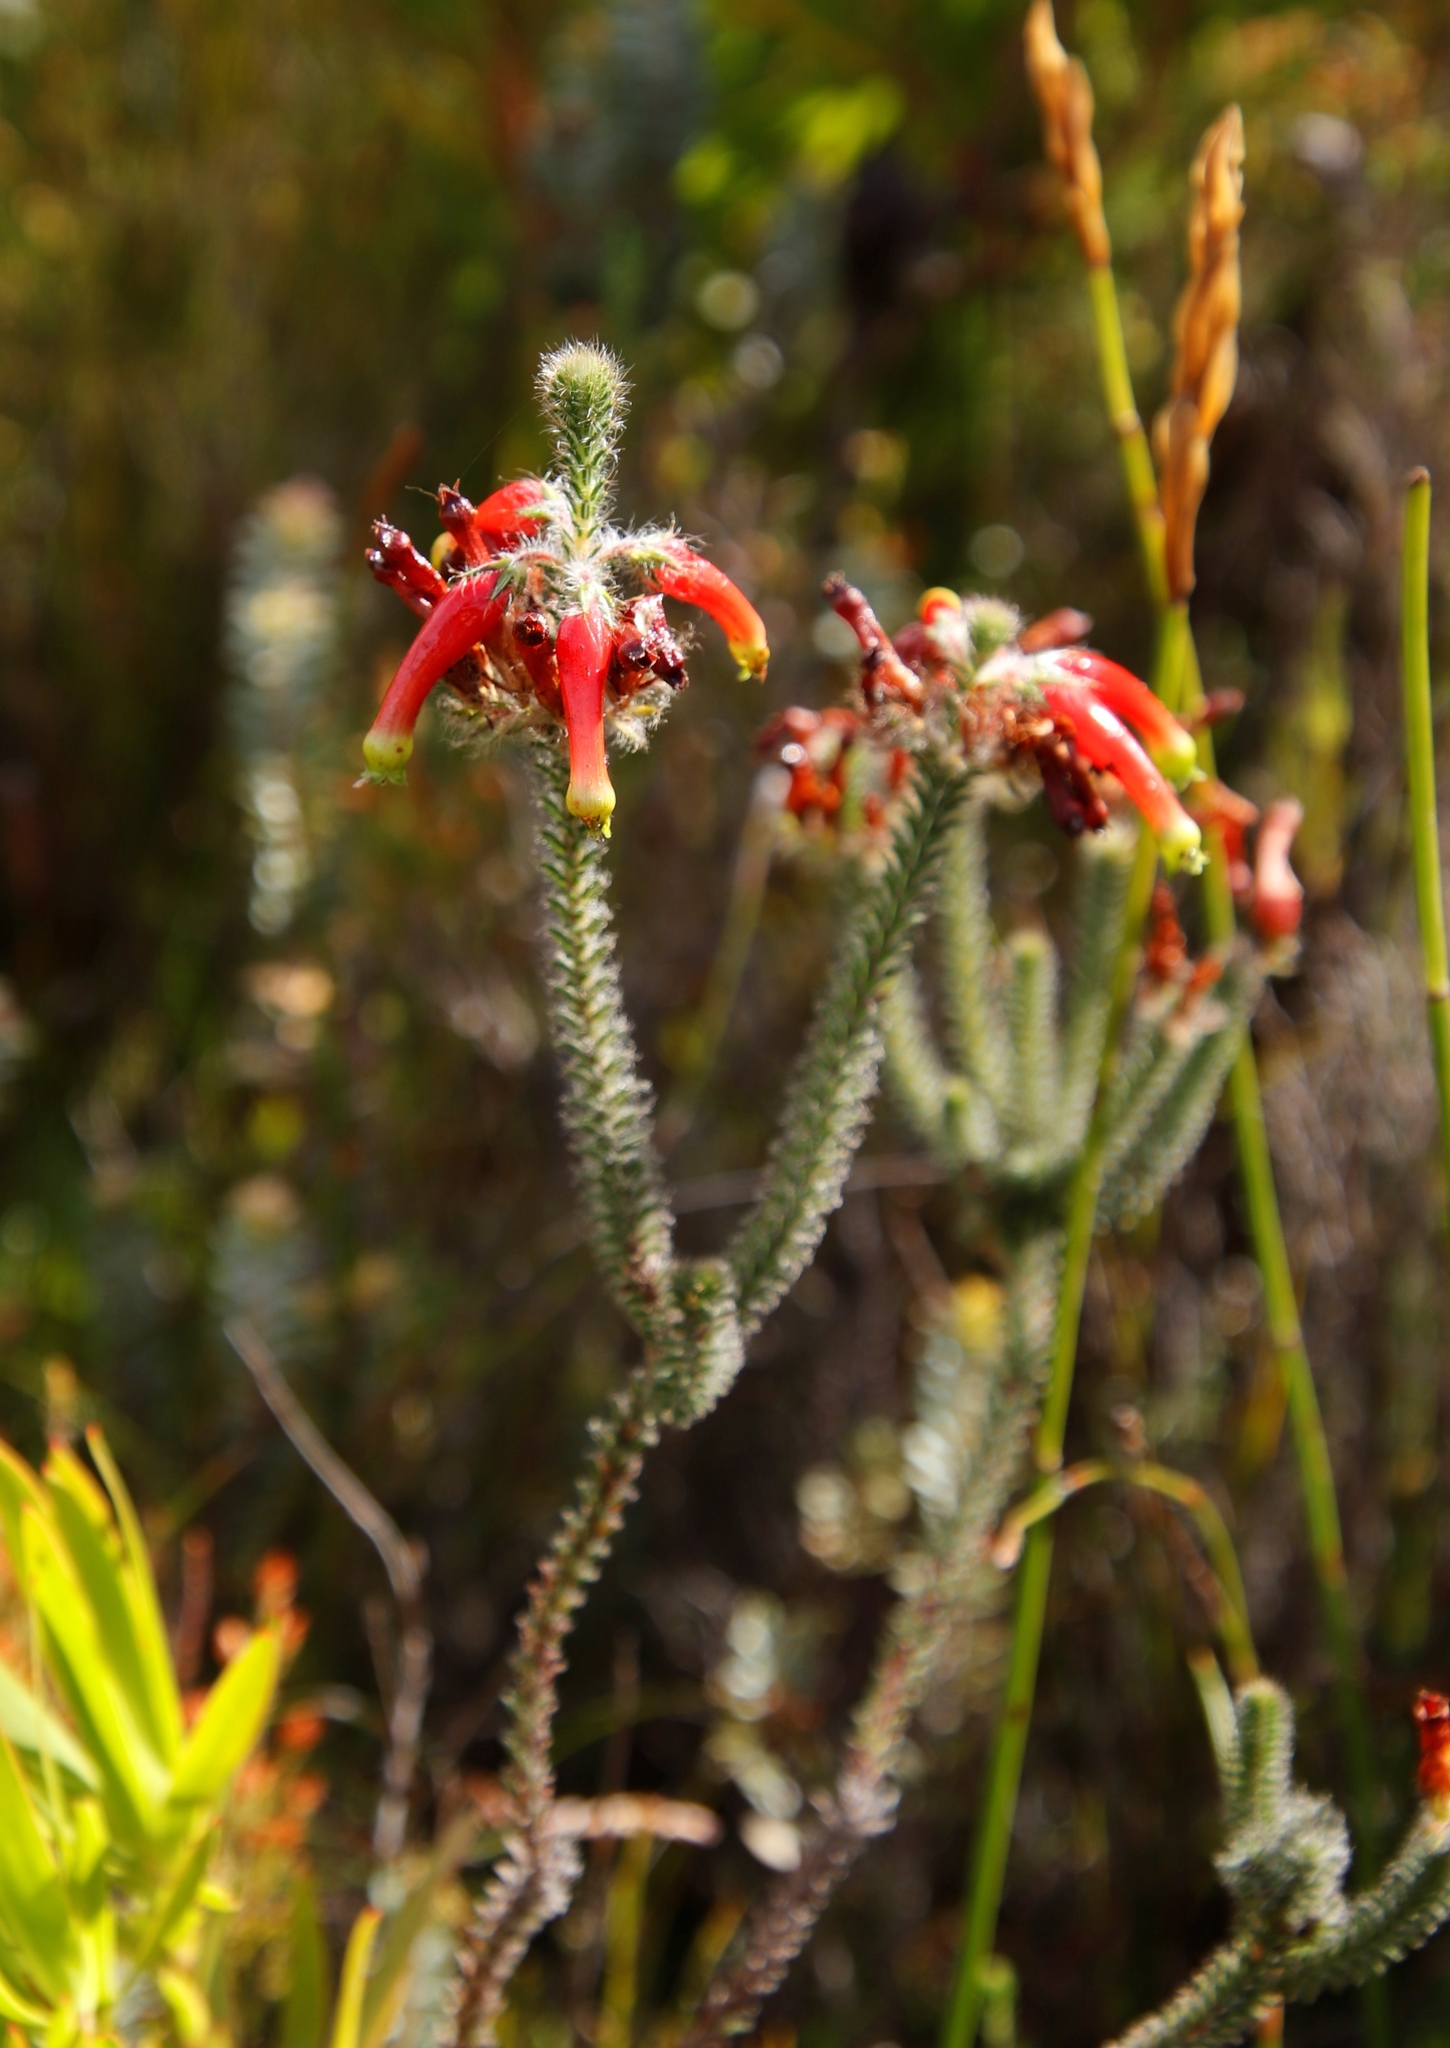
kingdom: Plantae
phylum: Tracheophyta
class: Magnoliopsida
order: Ericales
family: Ericaceae
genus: Erica
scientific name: Erica massonii
